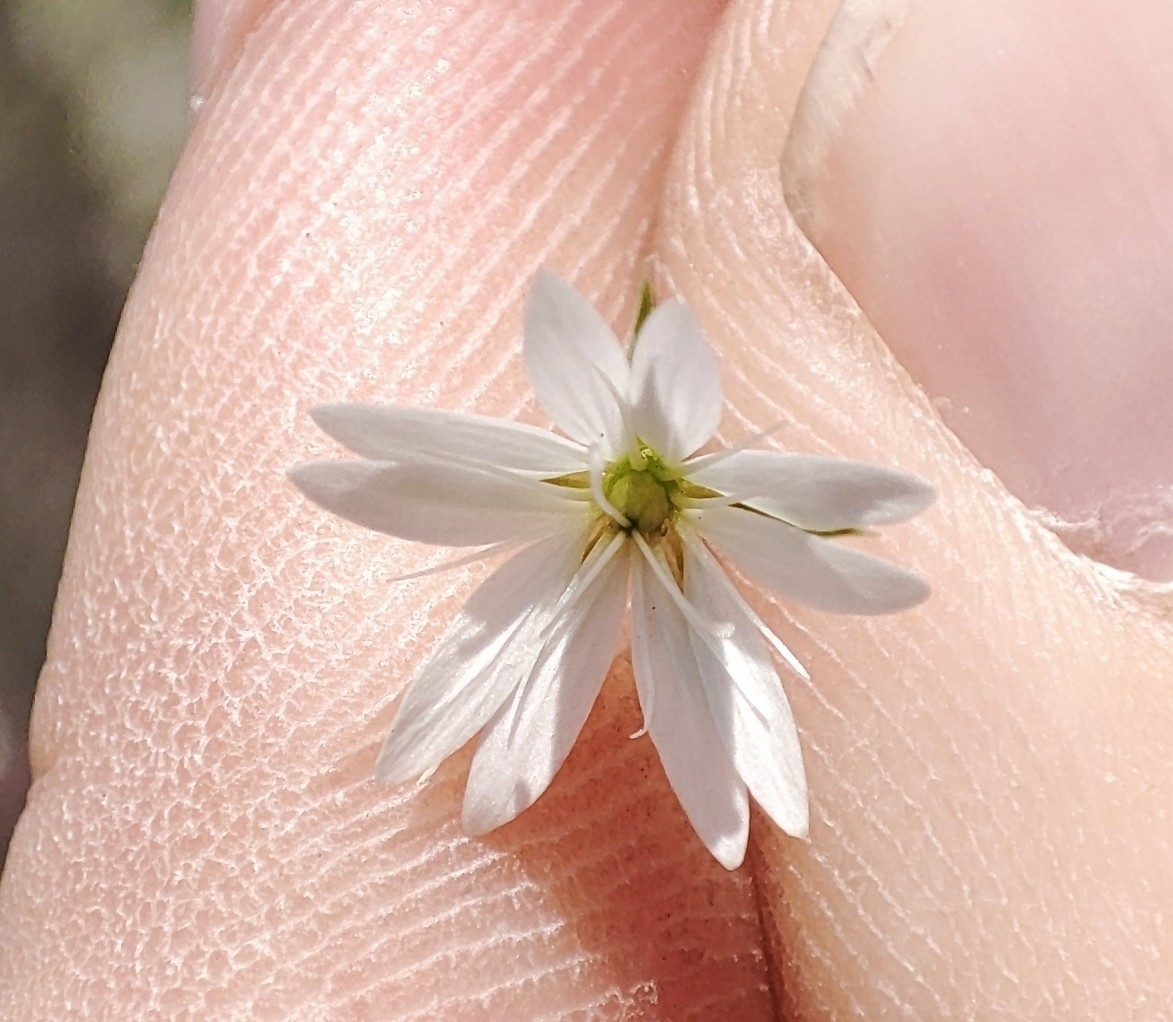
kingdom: Plantae
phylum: Tracheophyta
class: Magnoliopsida
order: Caryophyllales
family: Caryophyllaceae
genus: Stellaria
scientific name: Stellaria graminea
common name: Grass-like starwort
